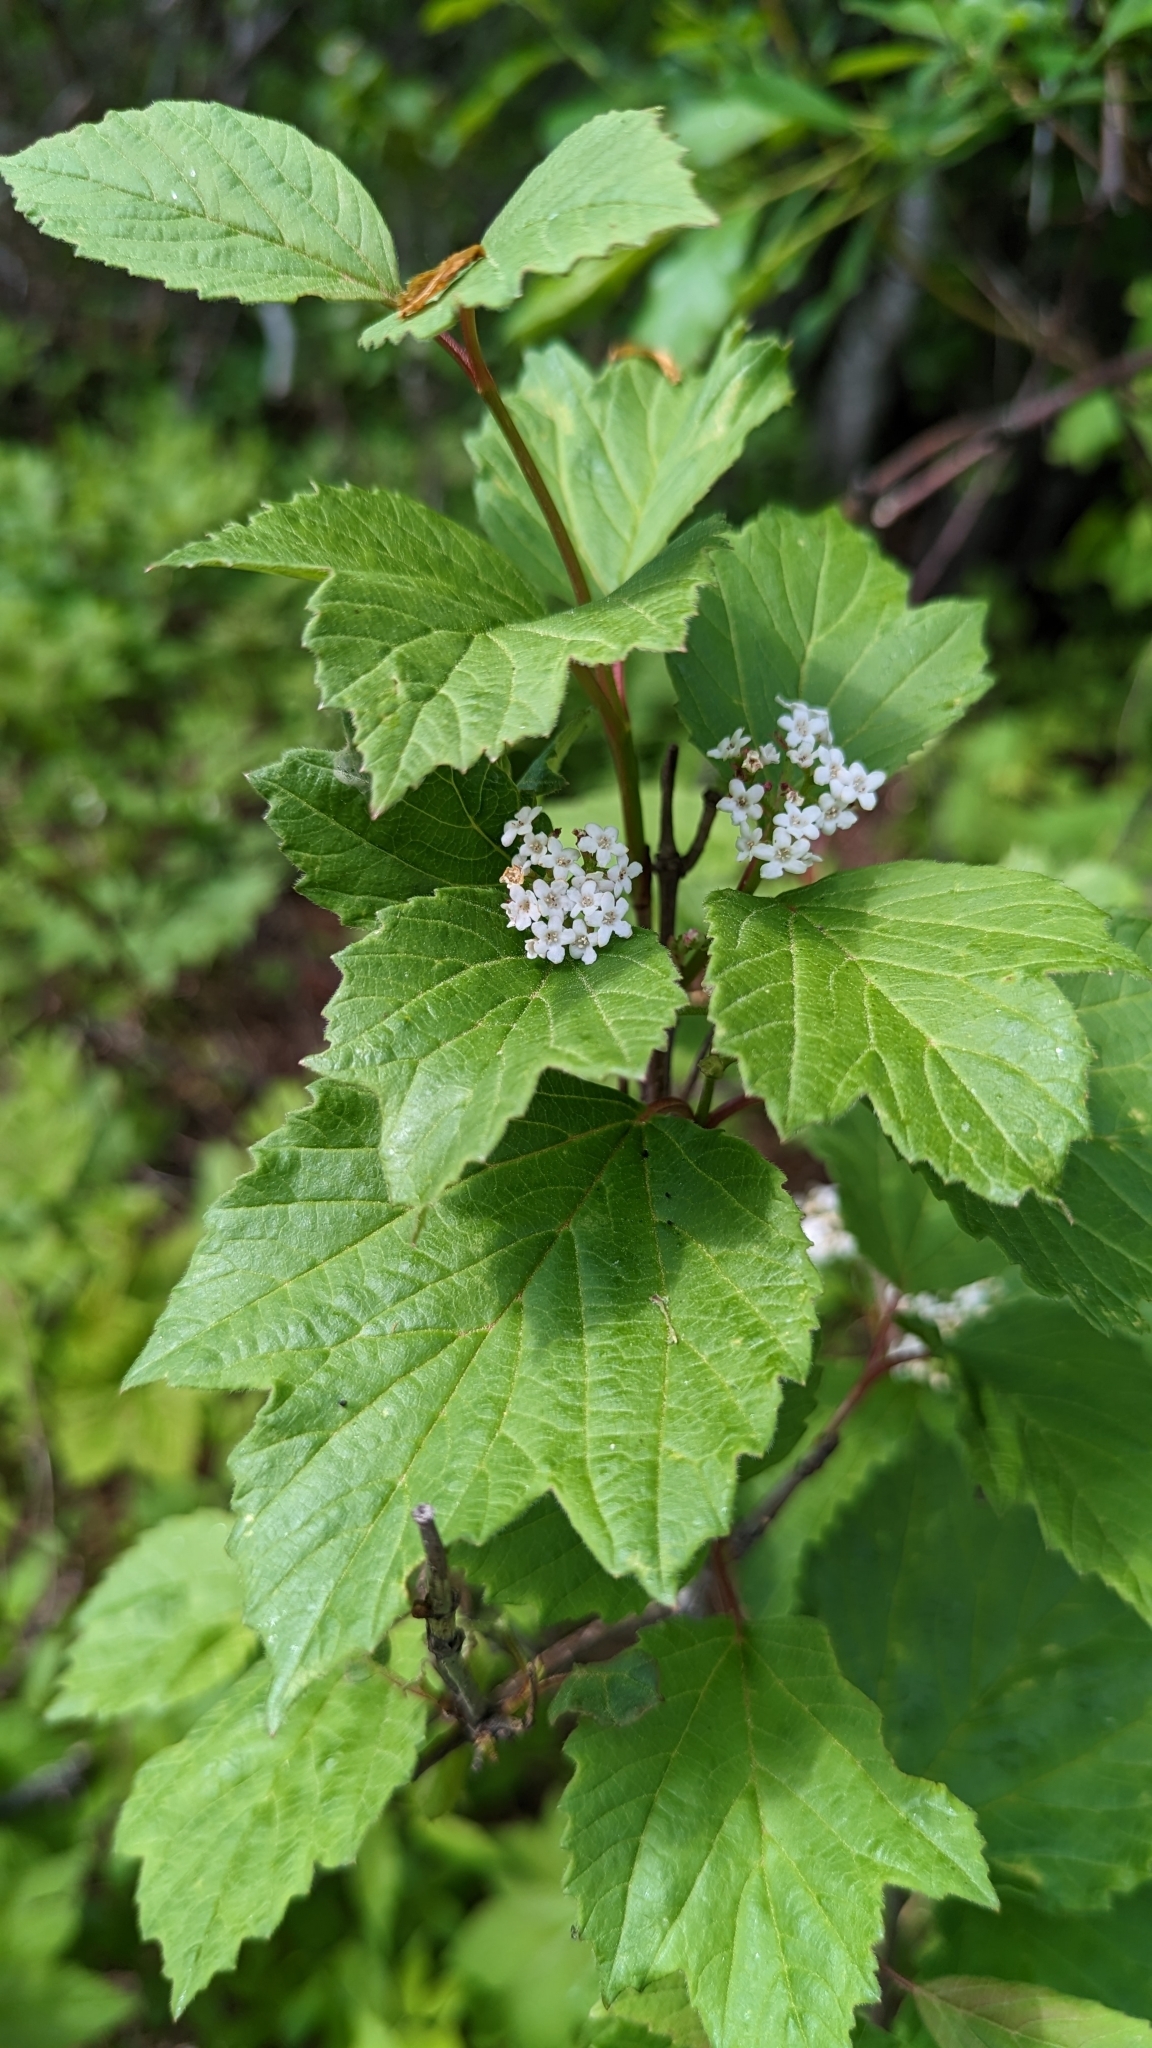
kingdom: Plantae
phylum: Tracheophyta
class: Magnoliopsida
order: Dipsacales
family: Viburnaceae
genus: Viburnum
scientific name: Viburnum edule
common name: Mooseberry
